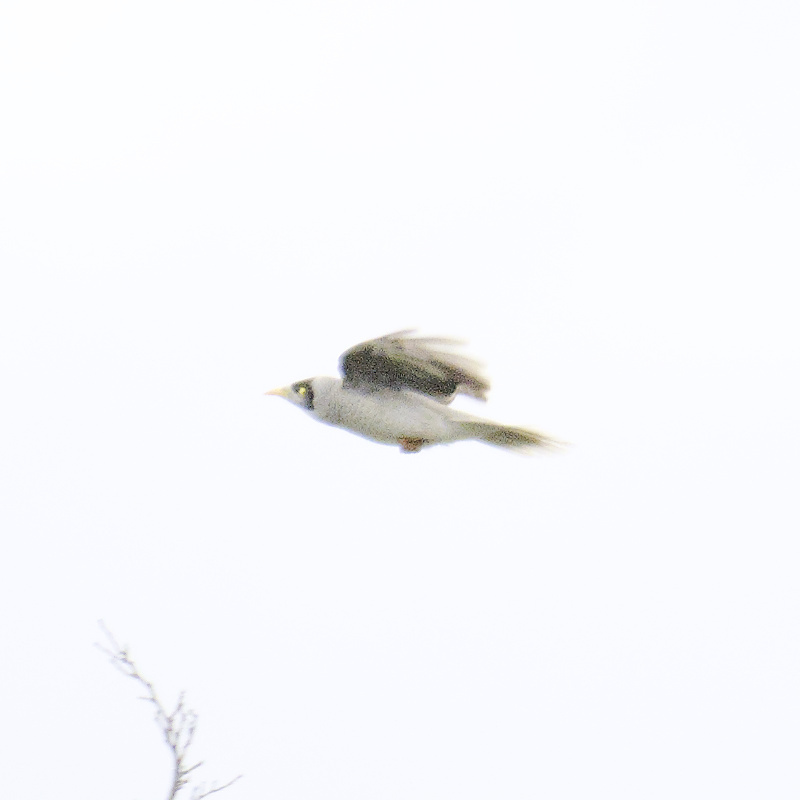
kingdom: Animalia
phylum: Chordata
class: Aves
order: Passeriformes
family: Meliphagidae
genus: Manorina
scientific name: Manorina melanocephala
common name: Noisy miner
